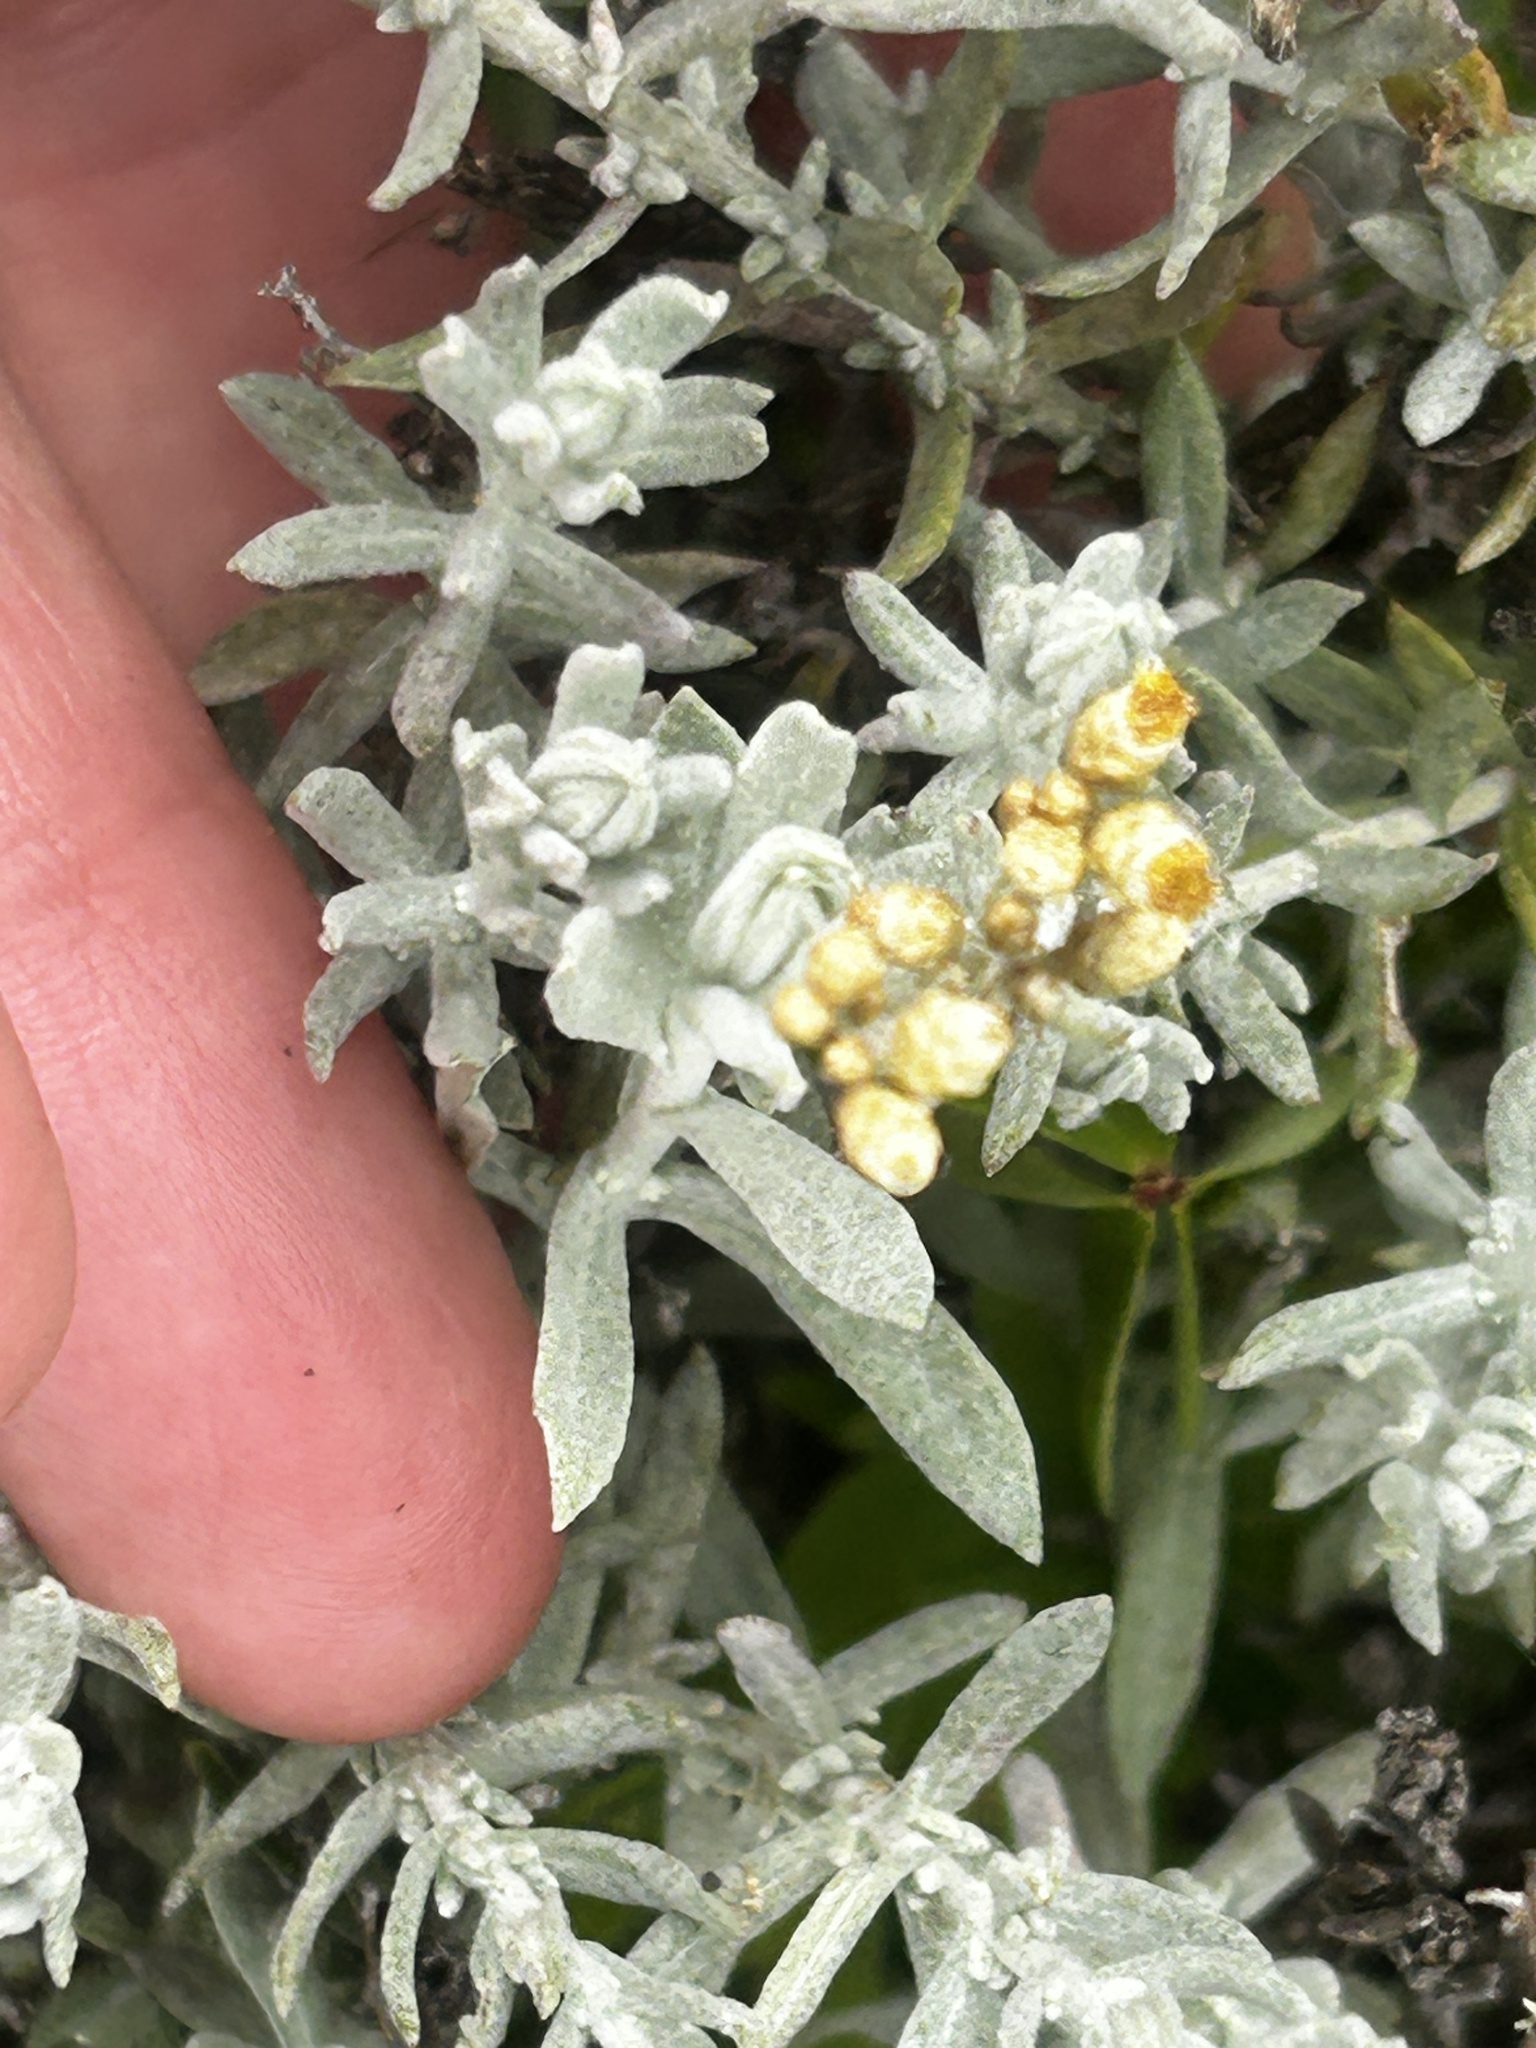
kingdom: Plantae
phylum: Tracheophyta
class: Magnoliopsida
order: Asterales
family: Asteraceae
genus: Helichrysum
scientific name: Helichrysum rosum
